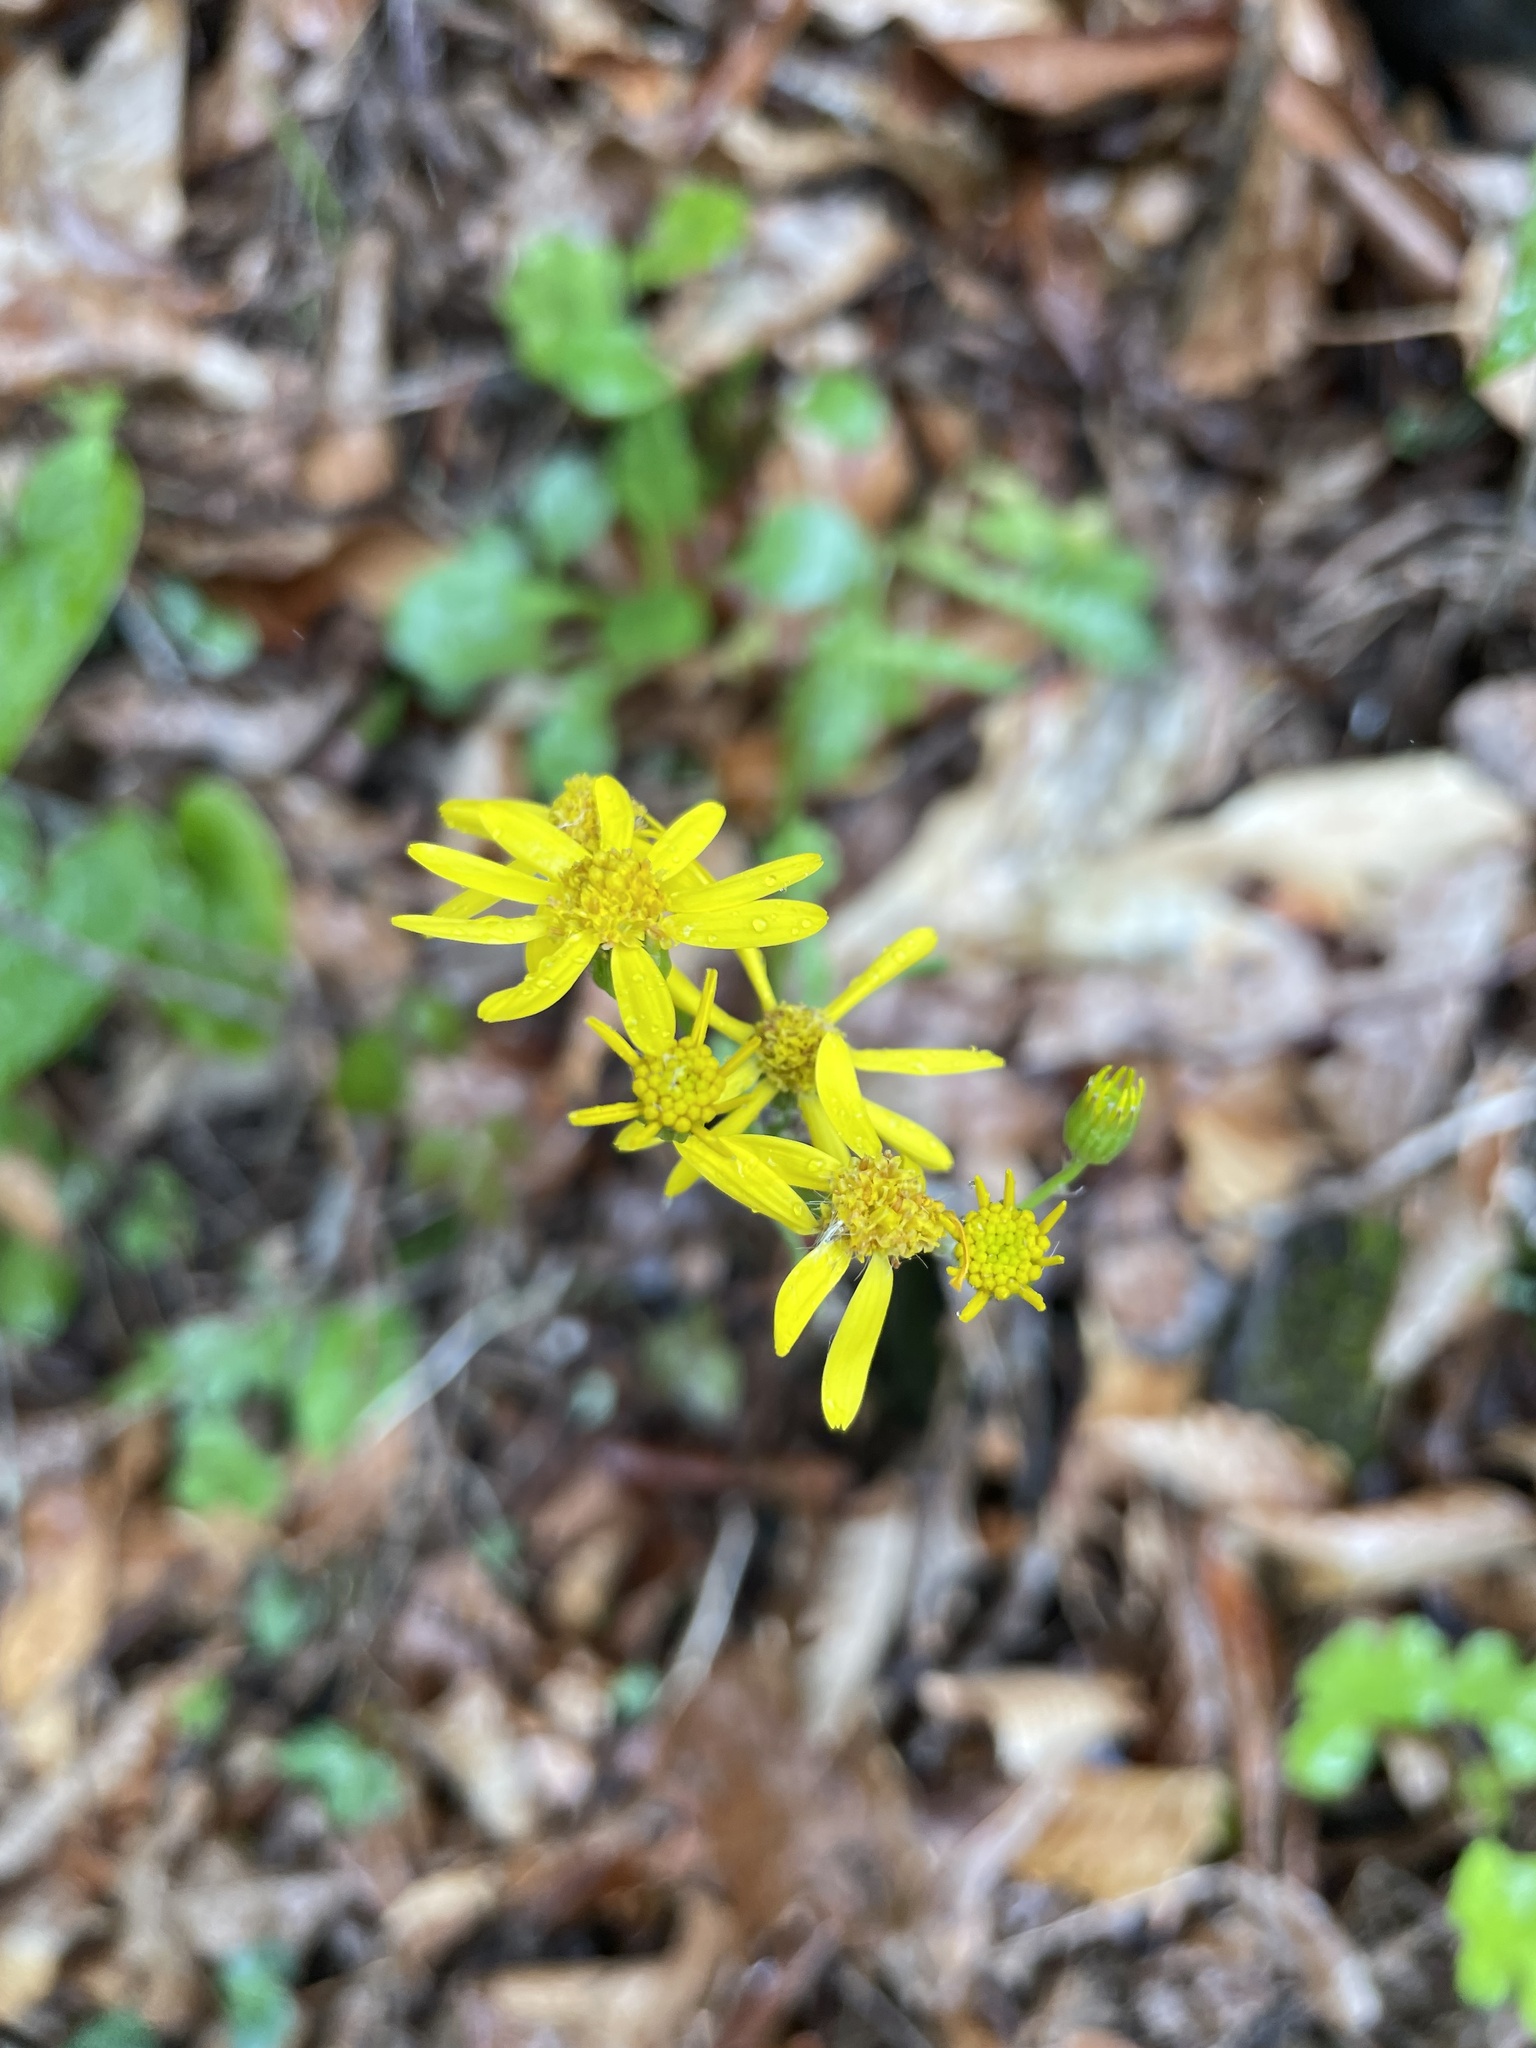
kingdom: Plantae
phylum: Tracheophyta
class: Magnoliopsida
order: Asterales
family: Asteraceae
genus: Packera
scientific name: Packera obovata
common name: Round-leaf ragwort
